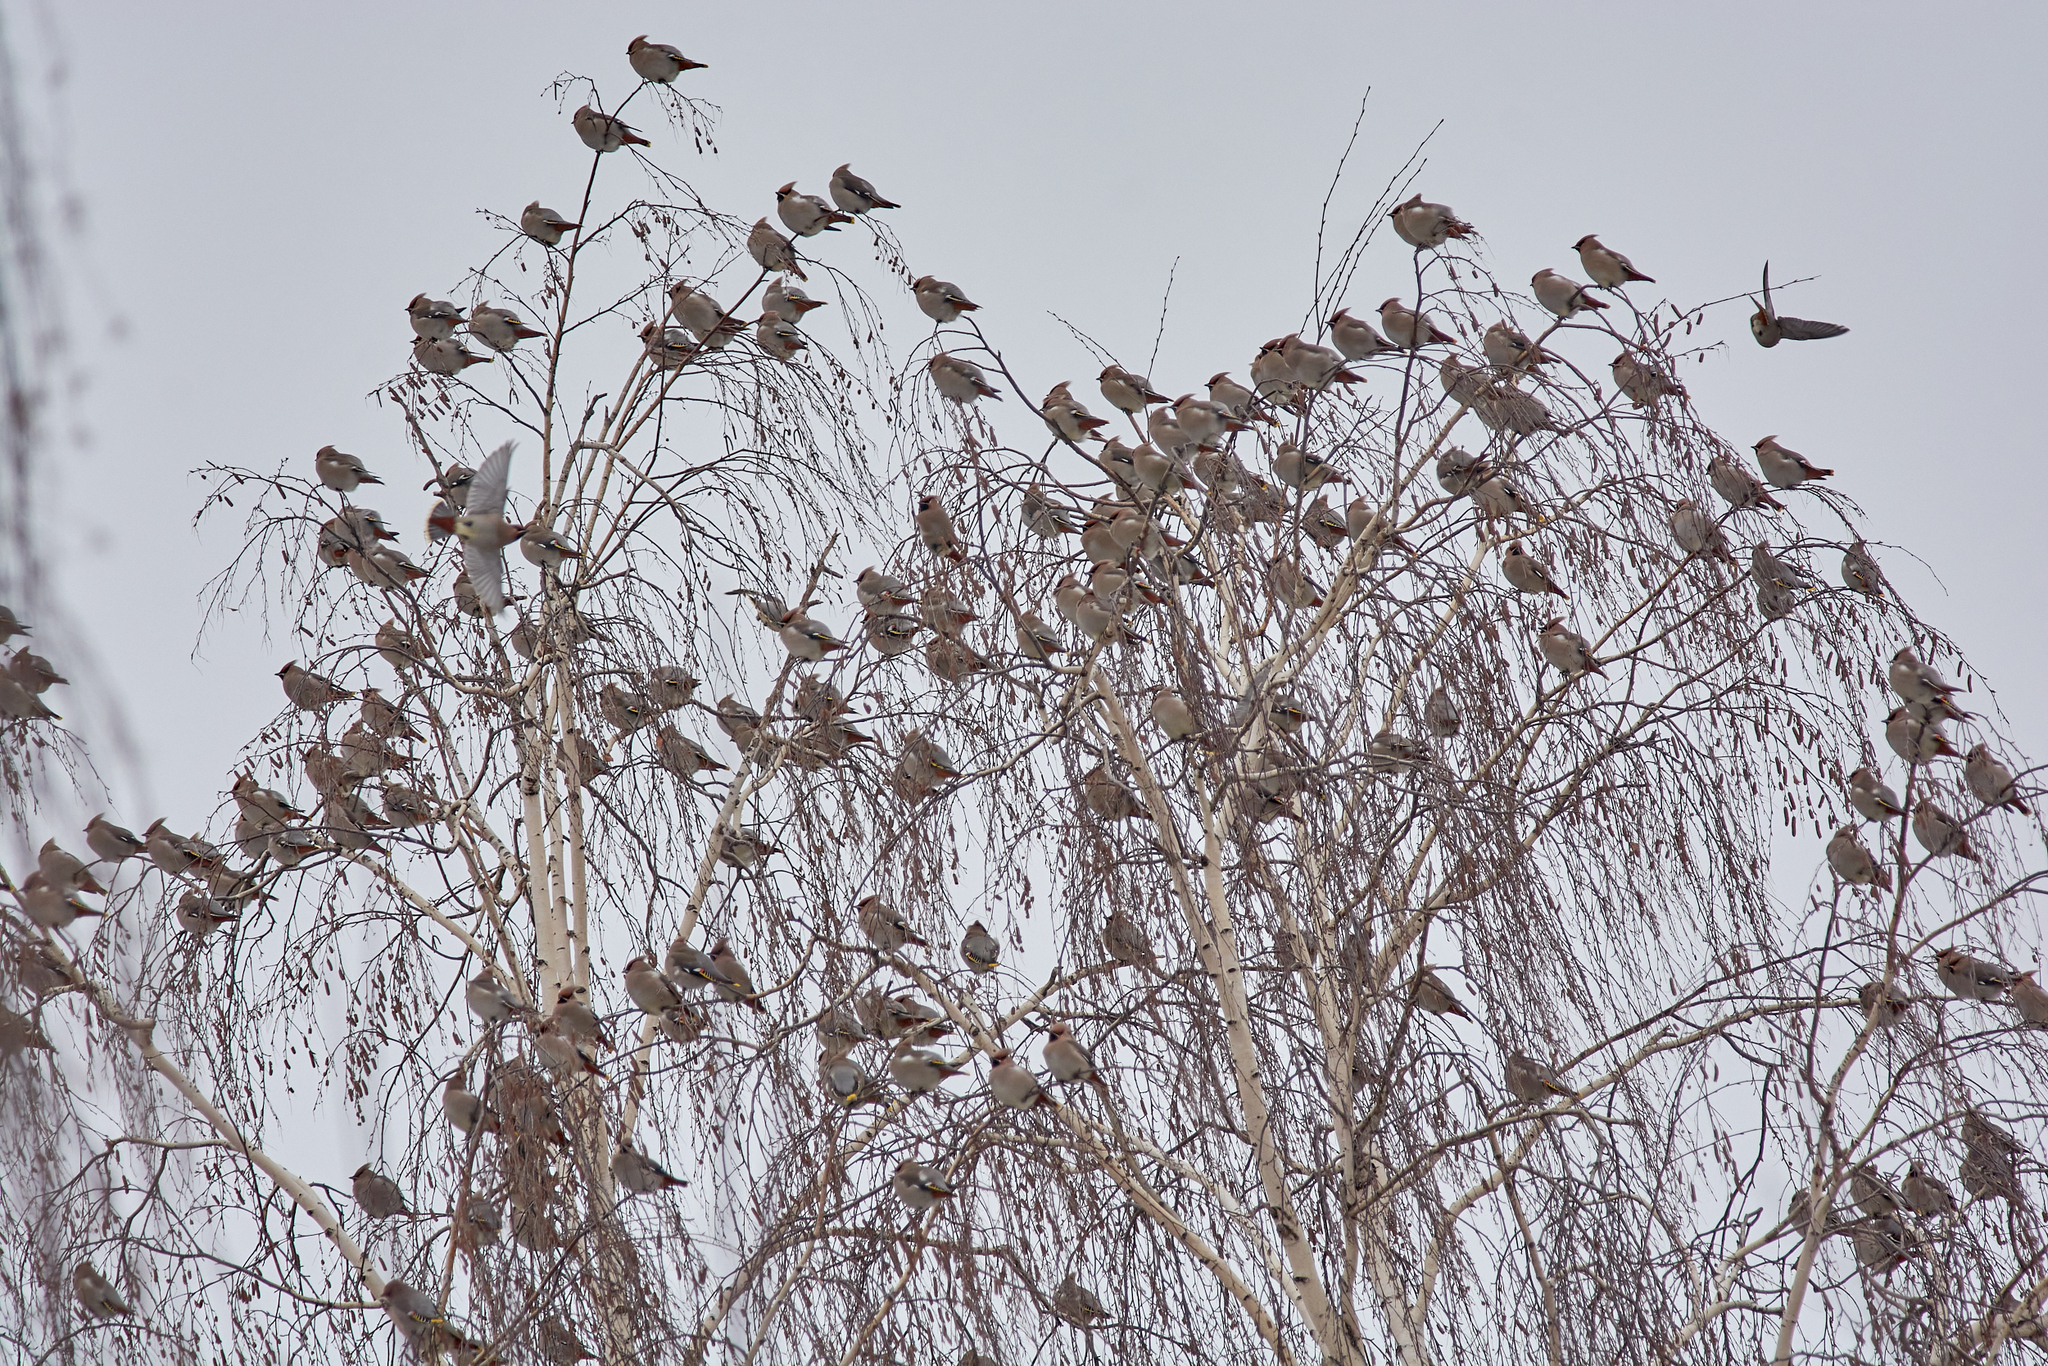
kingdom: Animalia
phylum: Chordata
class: Aves
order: Passeriformes
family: Bombycillidae
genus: Bombycilla
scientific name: Bombycilla garrulus
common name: Bohemian waxwing
